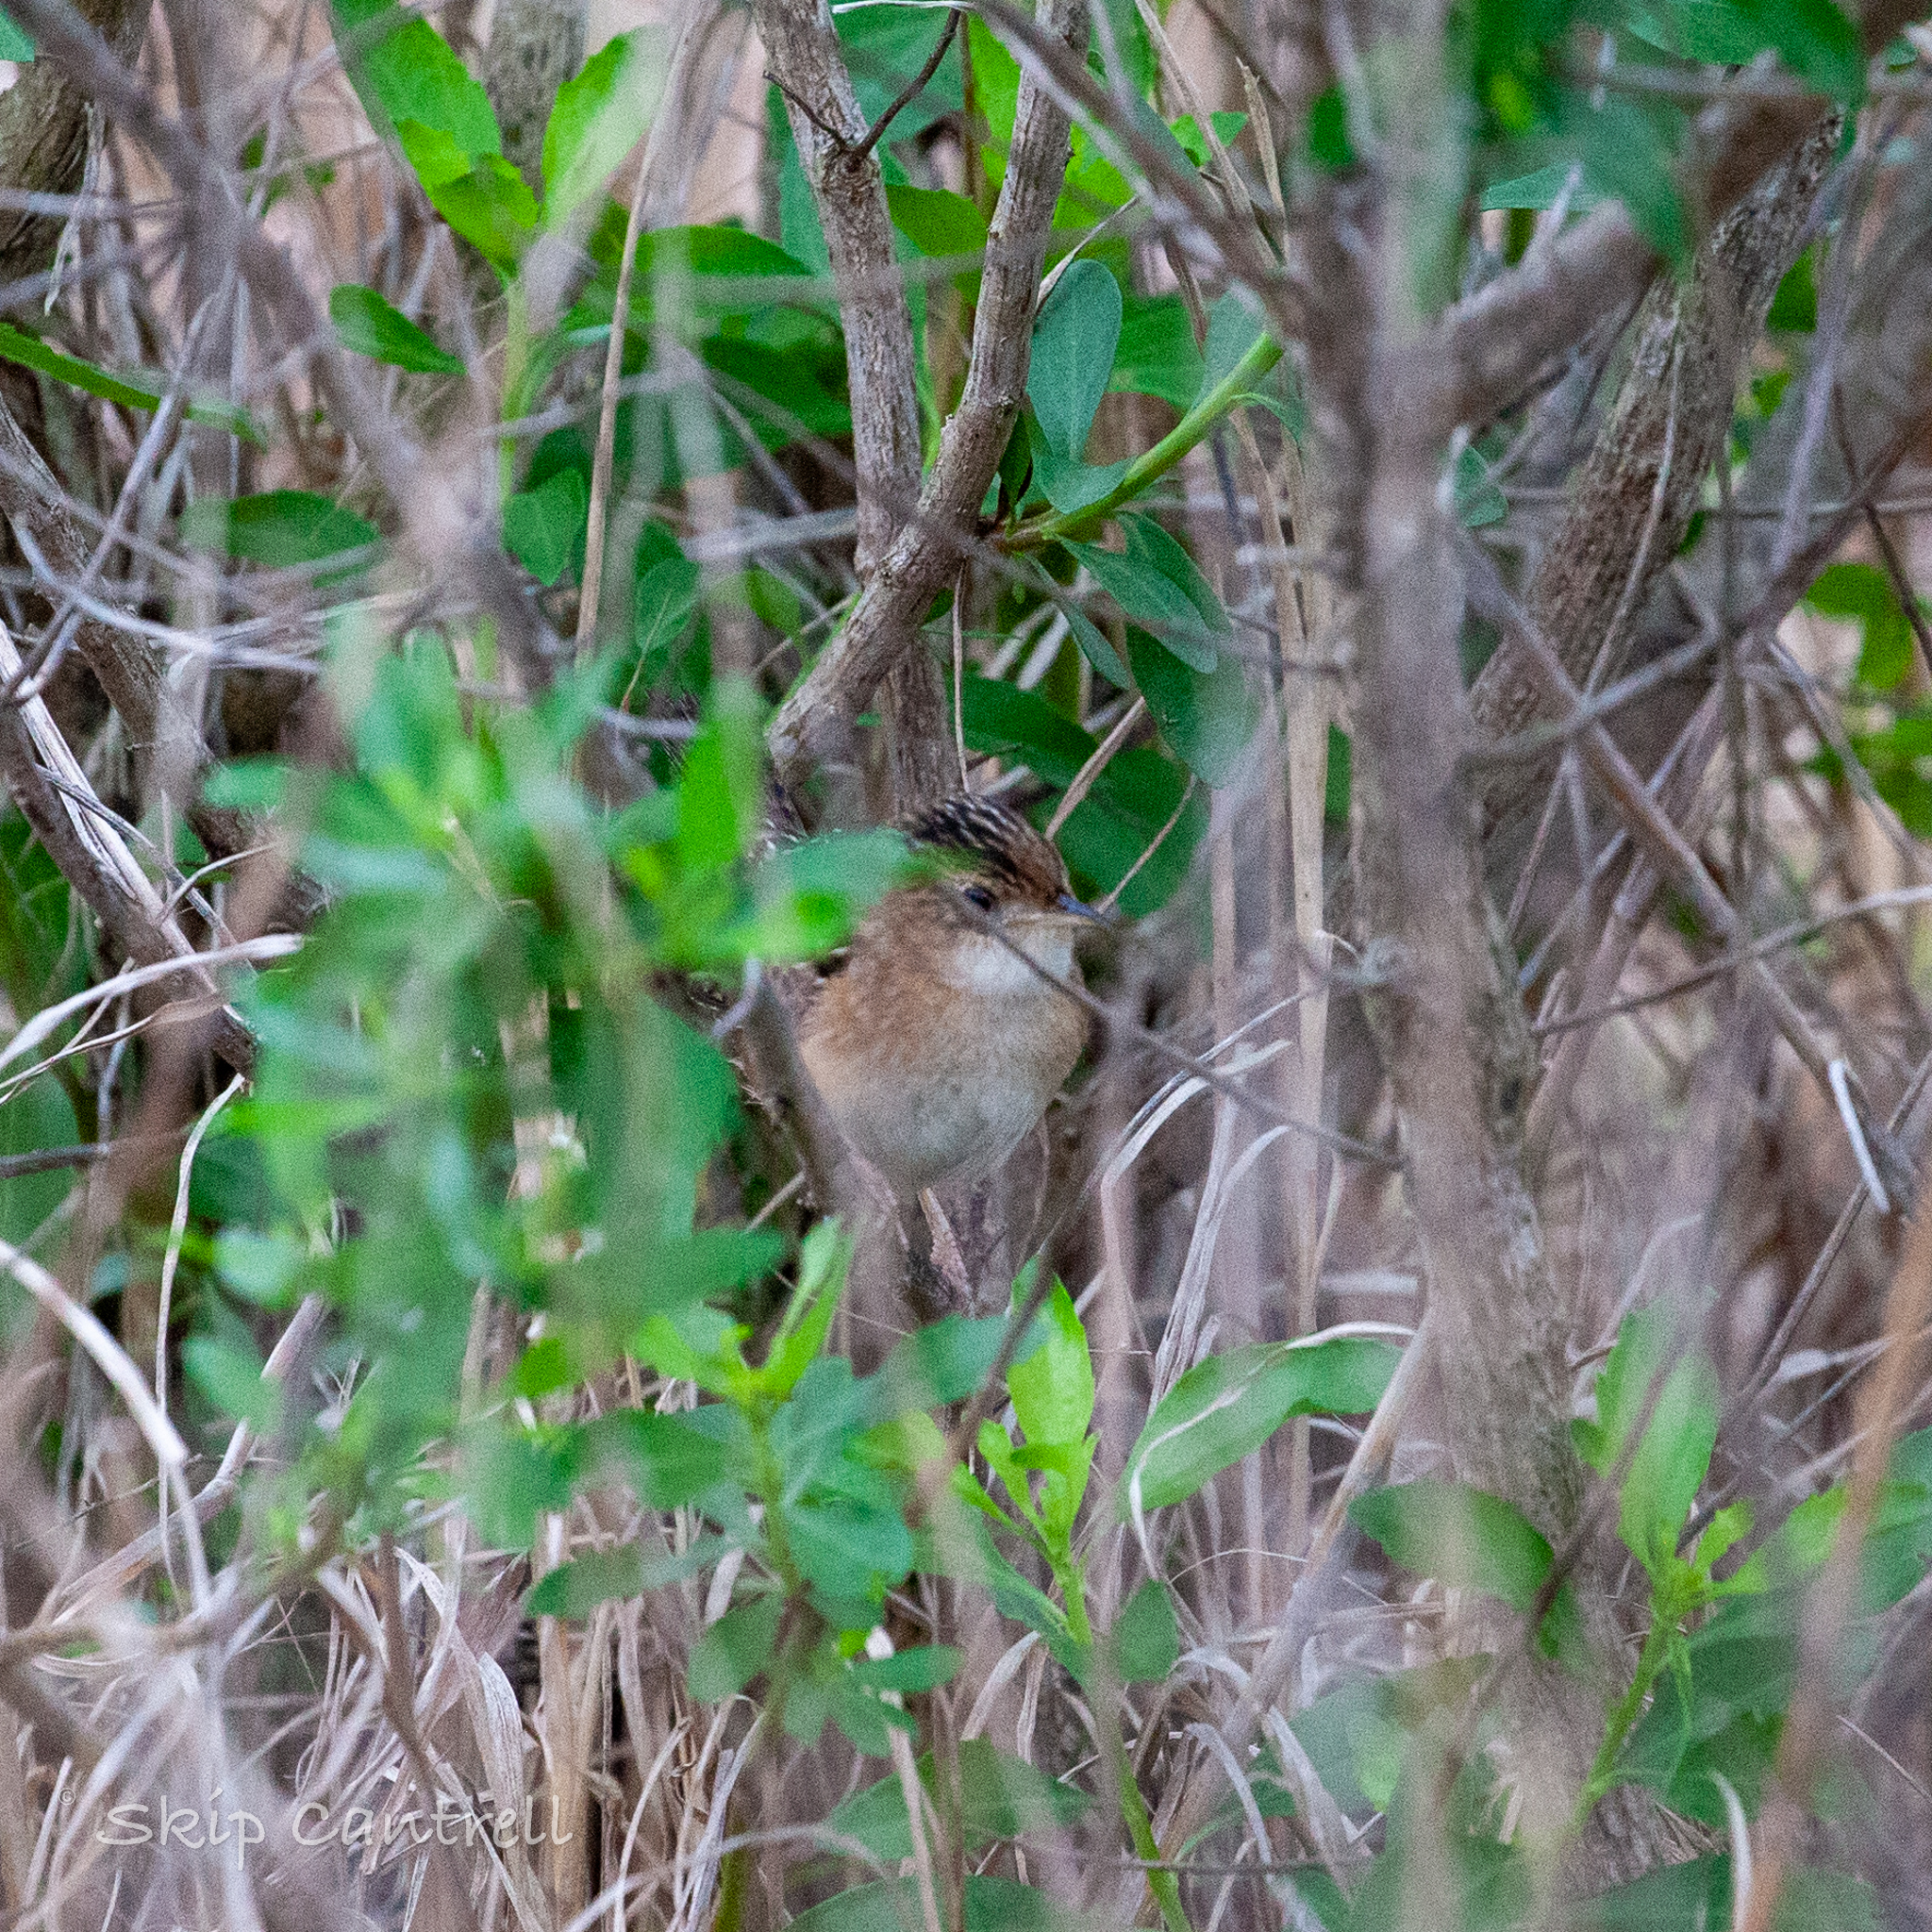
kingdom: Animalia
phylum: Chordata
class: Aves
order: Passeriformes
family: Troglodytidae
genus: Cistothorus
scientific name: Cistothorus platensis
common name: Sedge wren
